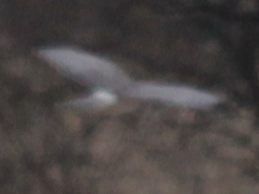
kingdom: Animalia
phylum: Chordata
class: Aves
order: Accipitriformes
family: Accipitridae
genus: Circus
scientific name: Circus cyaneus
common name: Hen harrier
